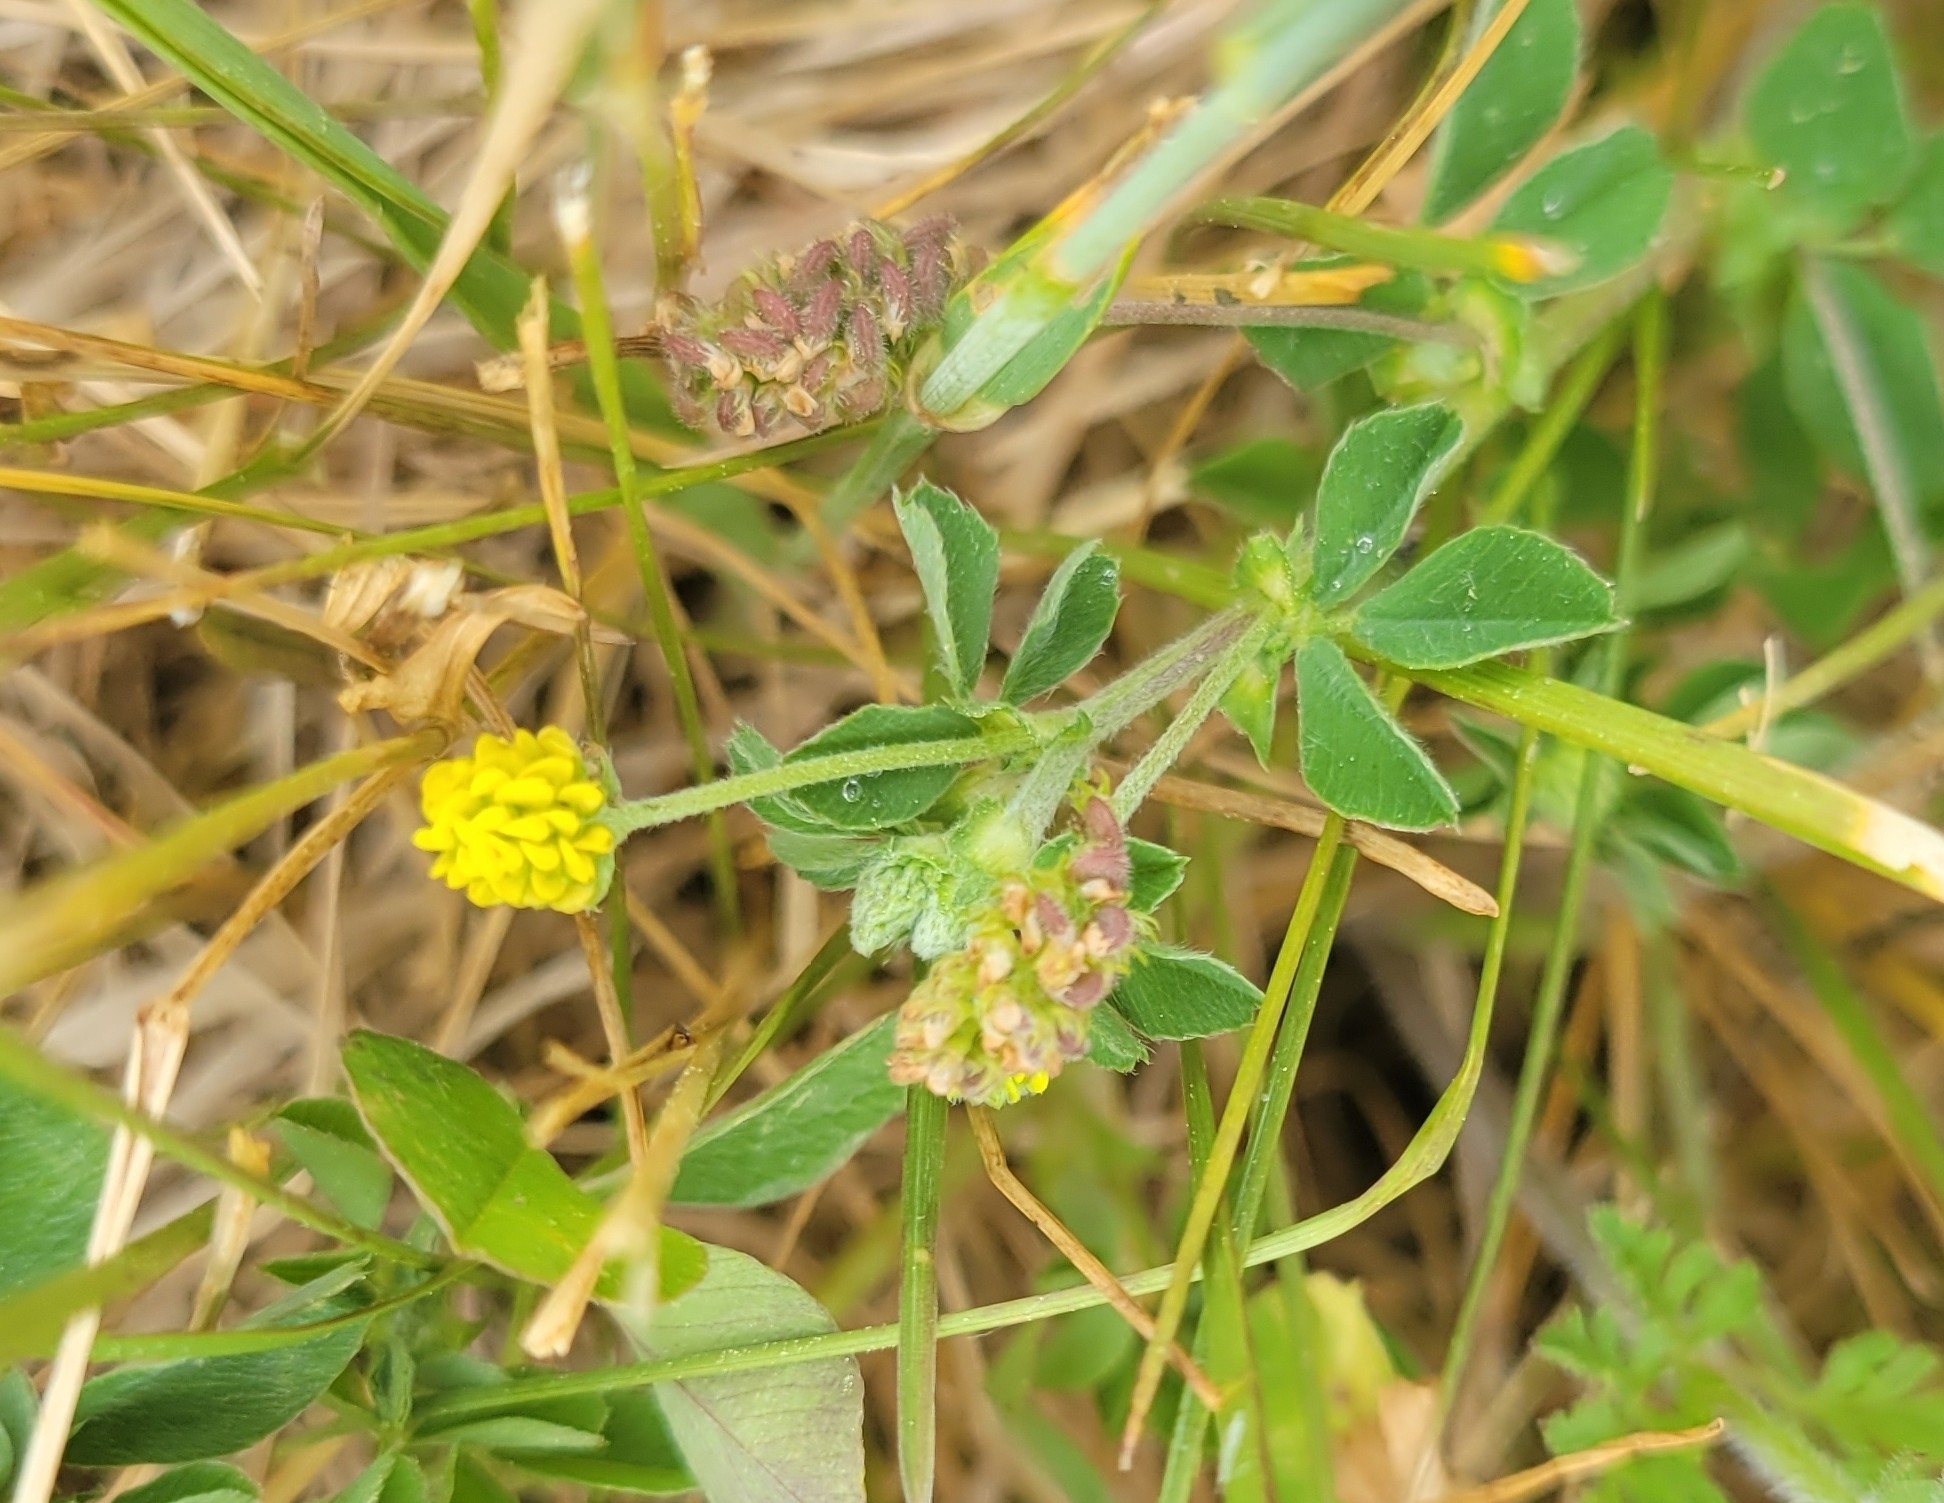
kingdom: Plantae
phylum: Tracheophyta
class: Magnoliopsida
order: Fabales
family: Fabaceae
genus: Medicago
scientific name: Medicago lupulina
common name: Black medick
